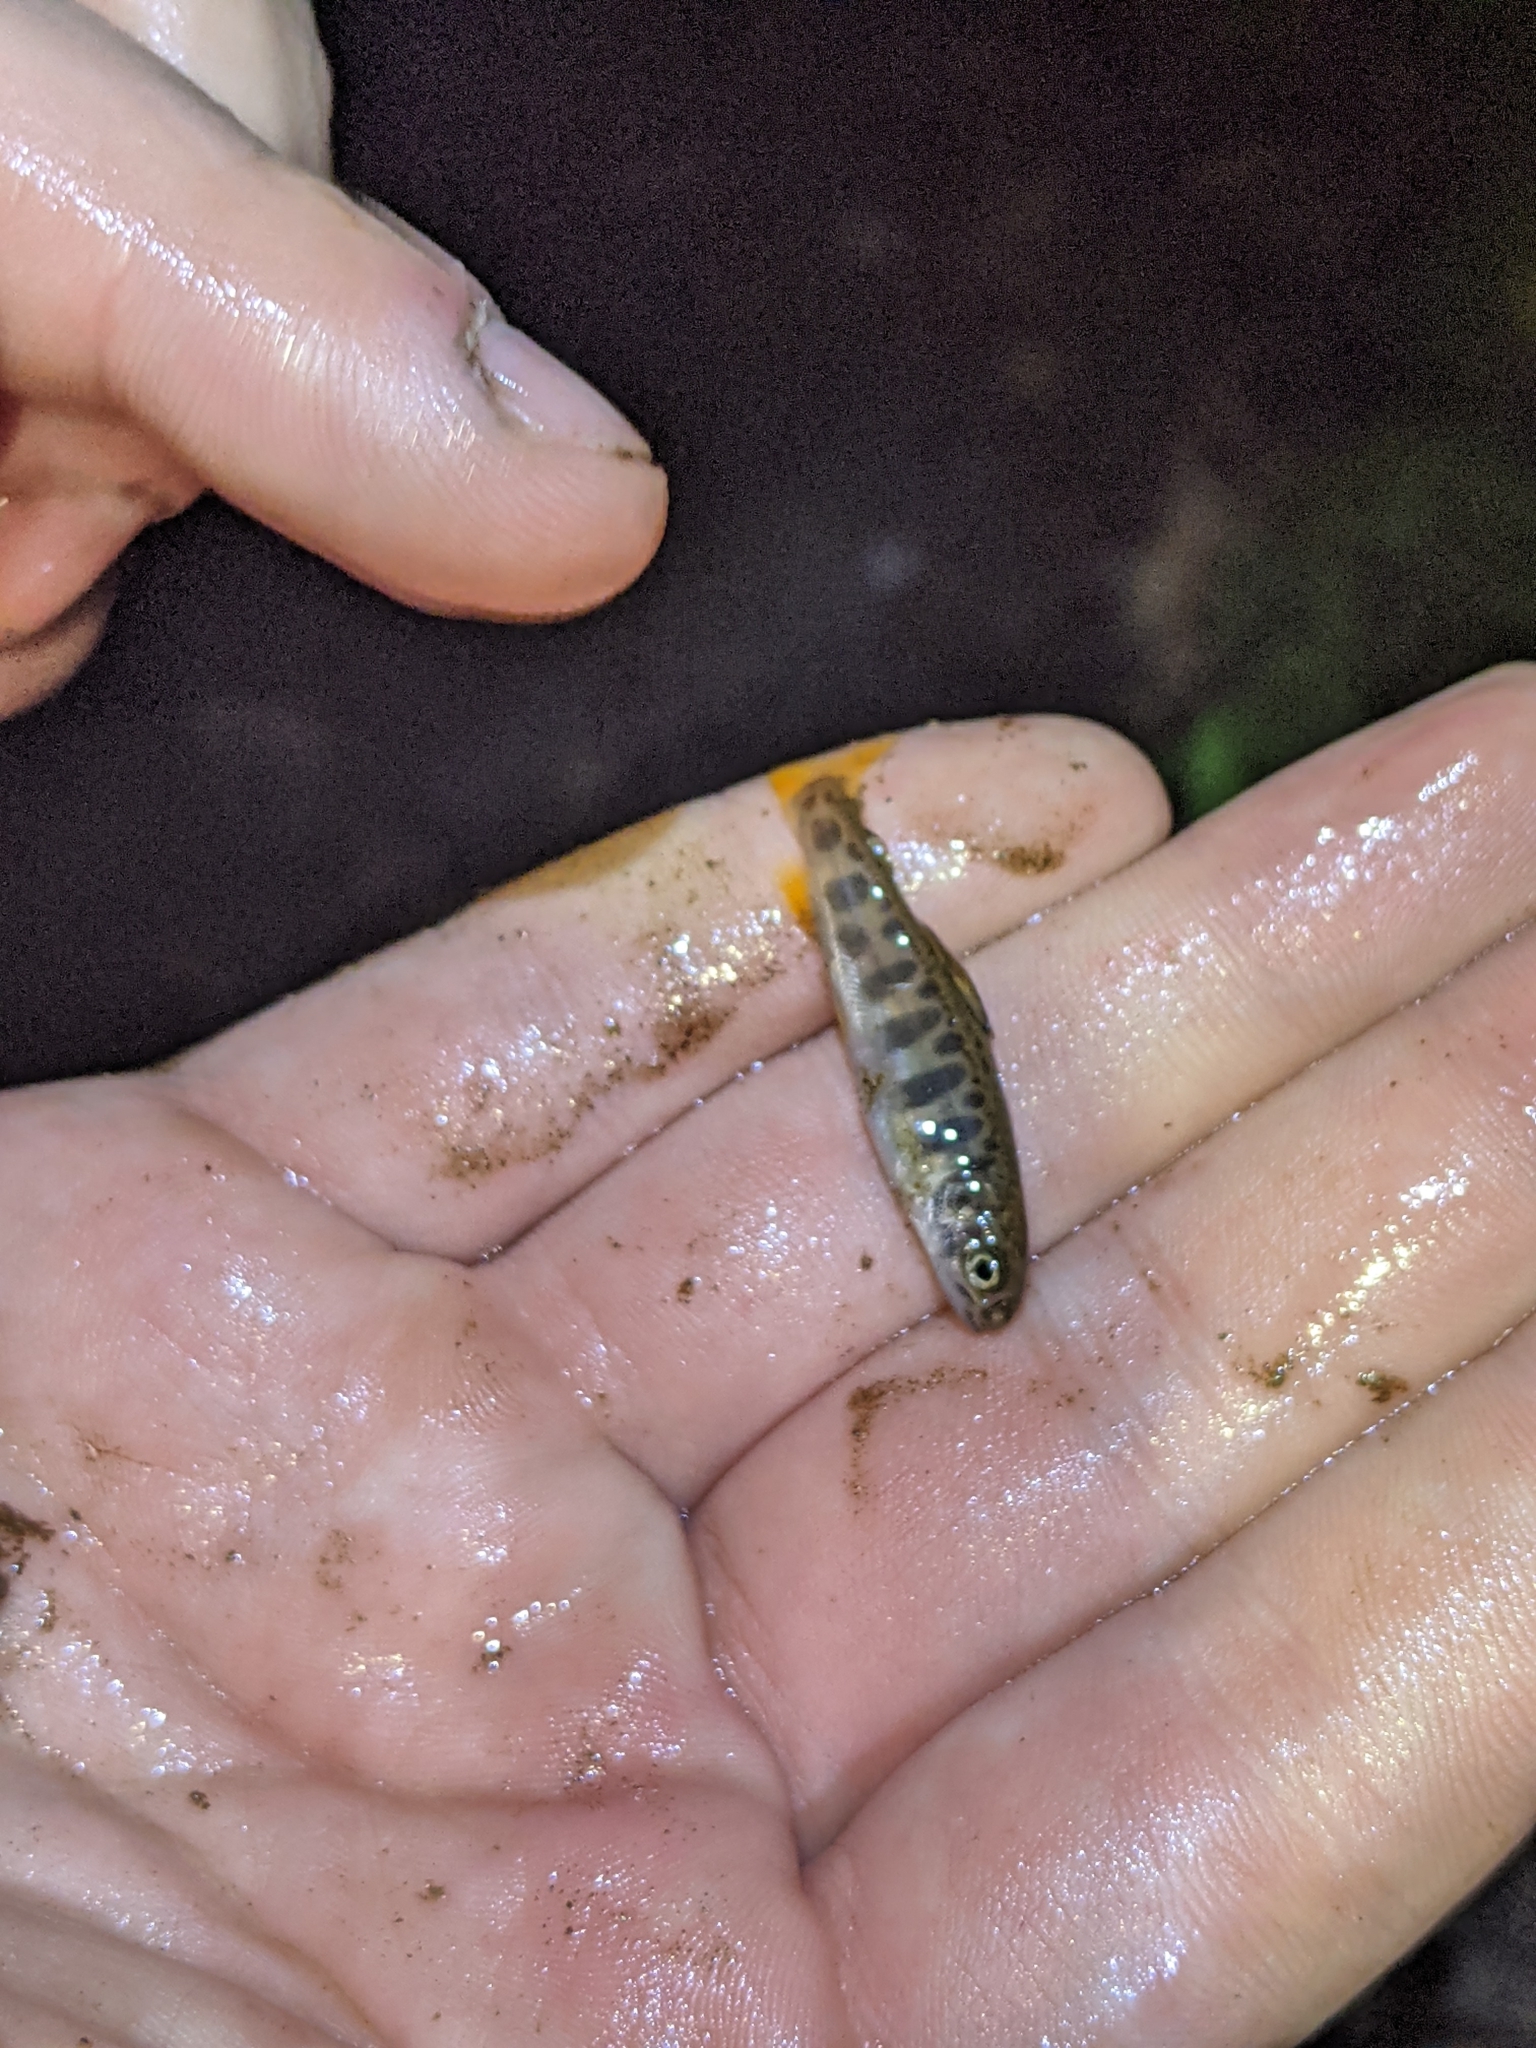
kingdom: Animalia
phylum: Chordata
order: Salmoniformes
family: Salmonidae
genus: Salvelinus
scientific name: Salvelinus fontinalis
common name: Brook trout
